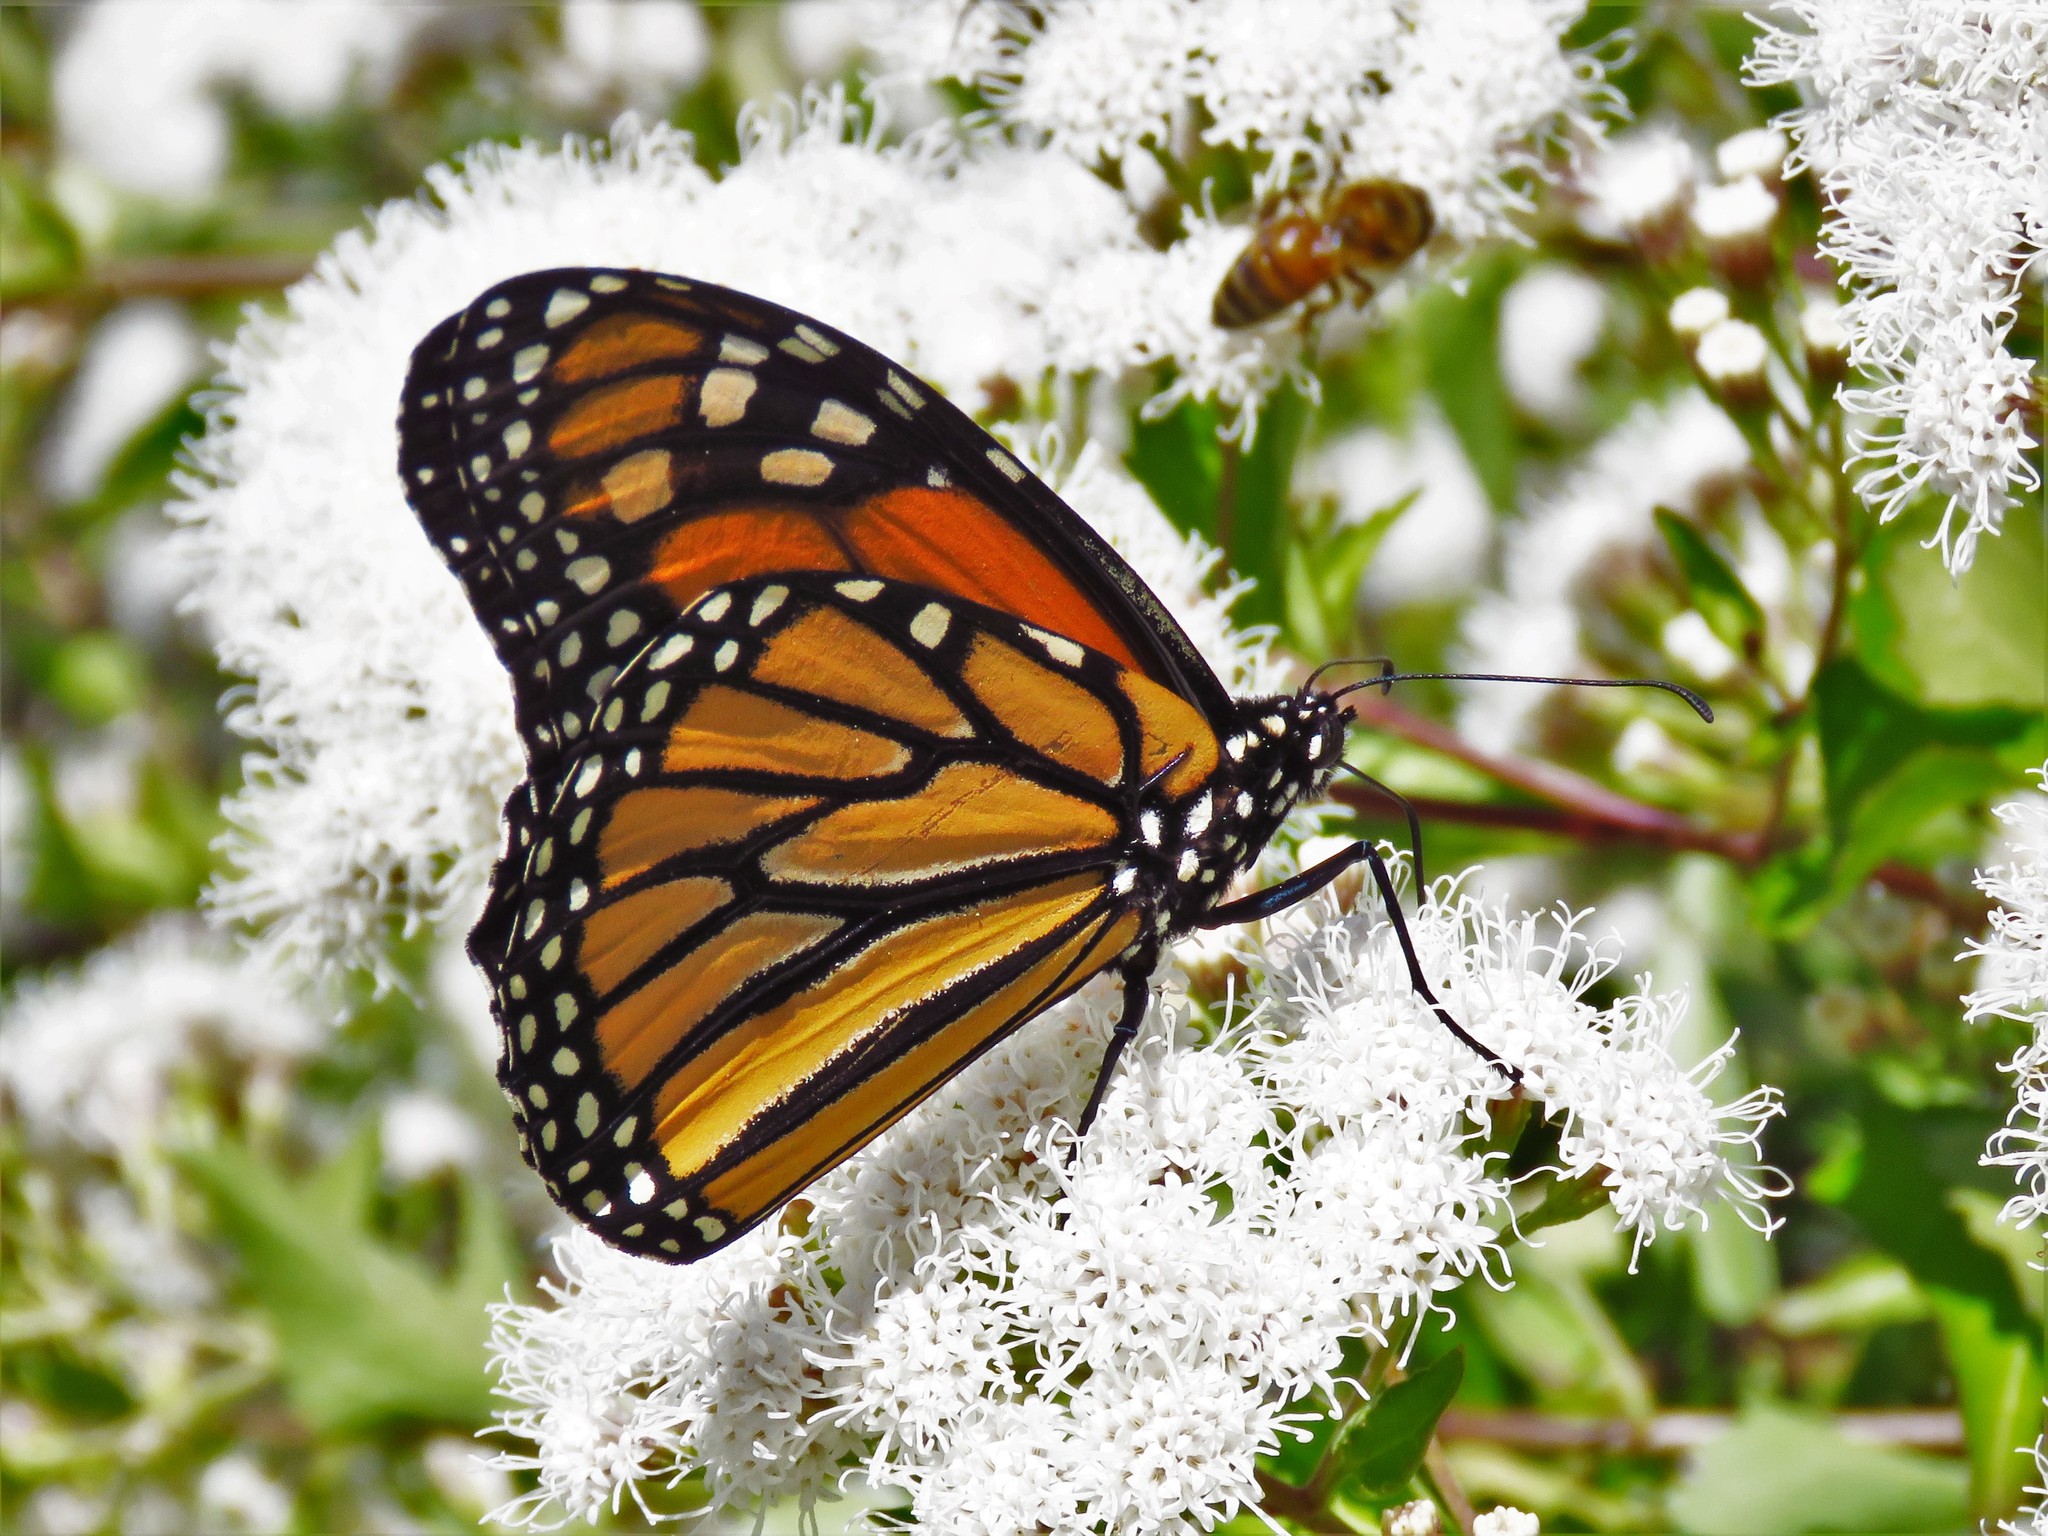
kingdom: Animalia
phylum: Arthropoda
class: Insecta
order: Lepidoptera
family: Nymphalidae
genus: Danaus
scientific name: Danaus plexippus
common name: Monarch
